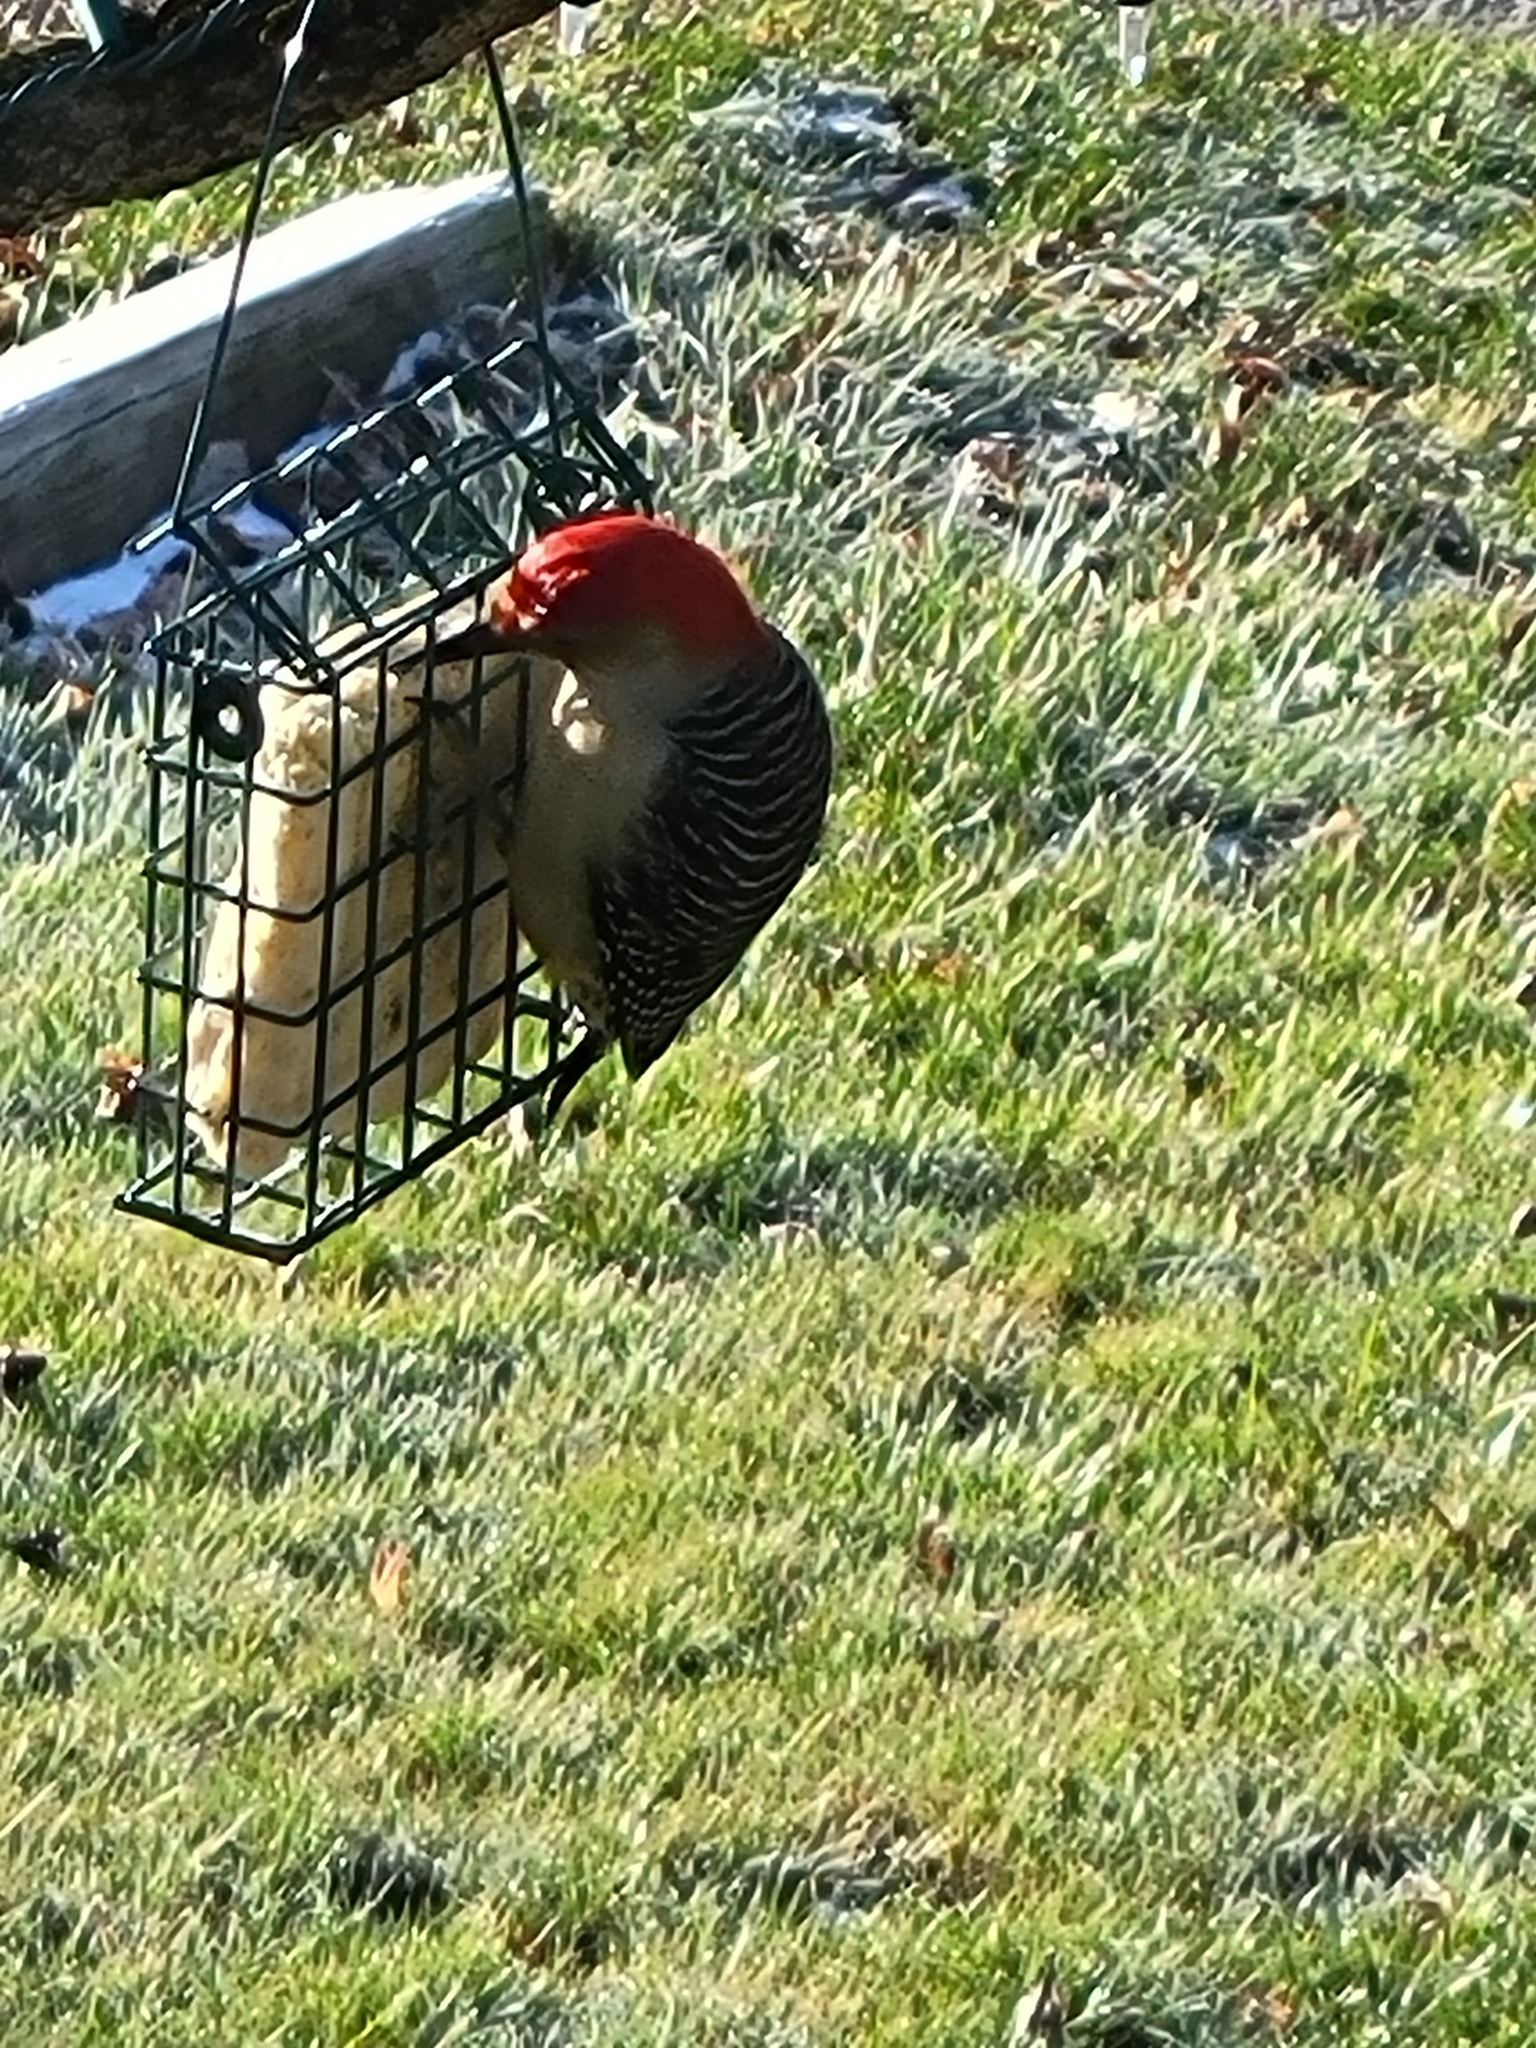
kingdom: Animalia
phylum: Chordata
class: Aves
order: Piciformes
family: Picidae
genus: Melanerpes
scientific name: Melanerpes carolinus
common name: Red-bellied woodpecker
